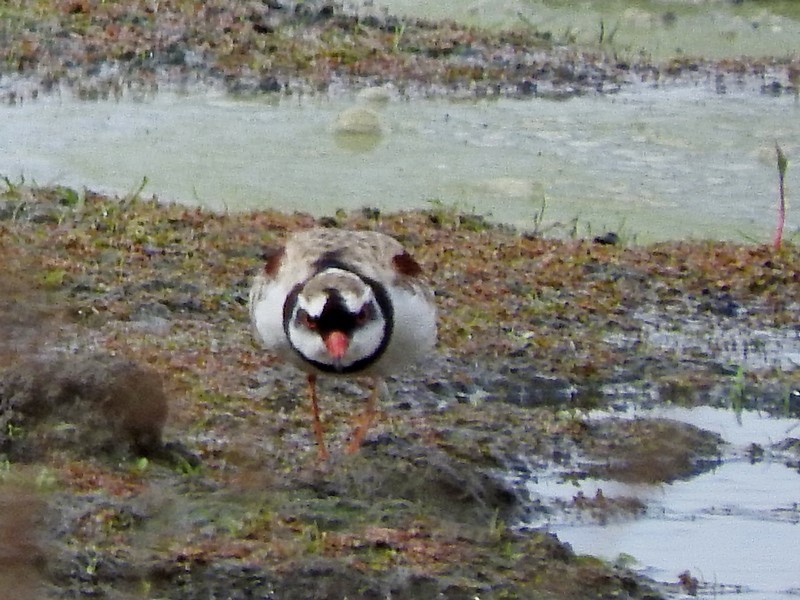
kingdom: Animalia
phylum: Chordata
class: Aves
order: Charadriiformes
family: Charadriidae
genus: Elseyornis
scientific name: Elseyornis melanops
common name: Black-fronted dotterel
